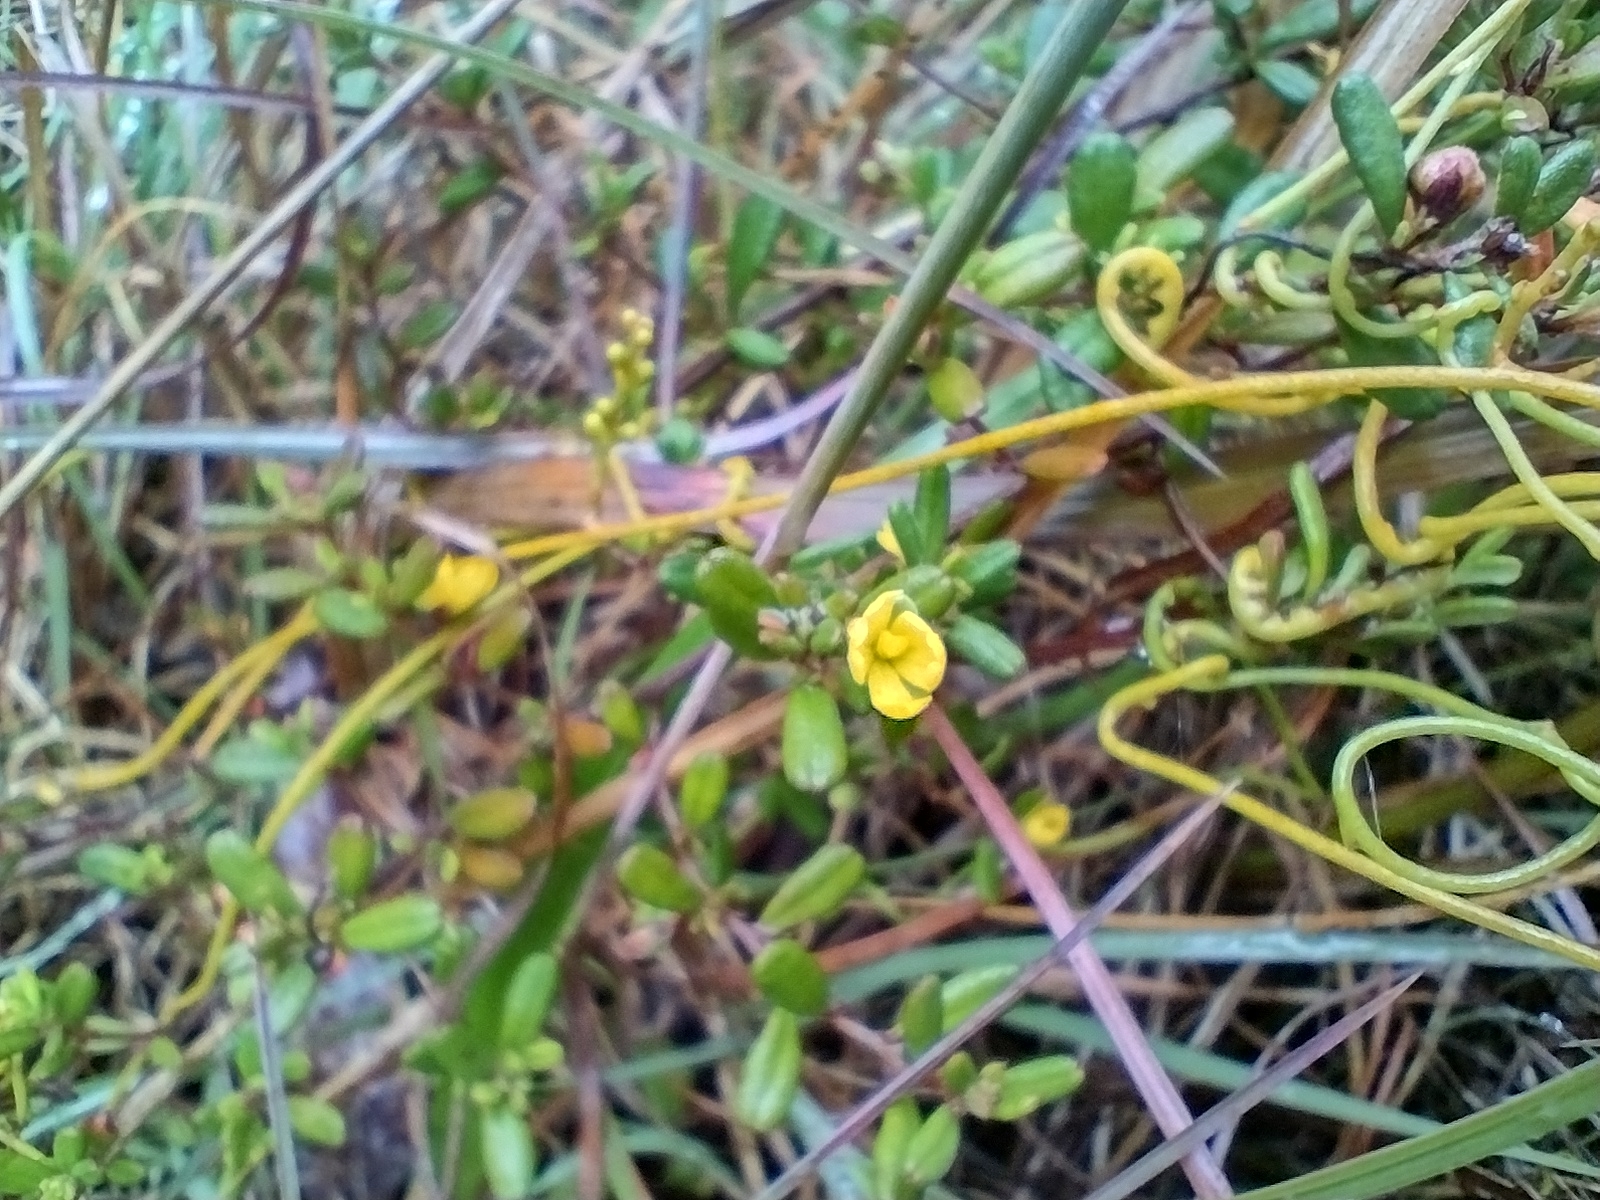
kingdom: Plantae
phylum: Tracheophyta
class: Magnoliopsida
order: Dilleniales
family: Dilleniaceae
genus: Hibbertia
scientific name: Hibbertia aspera
